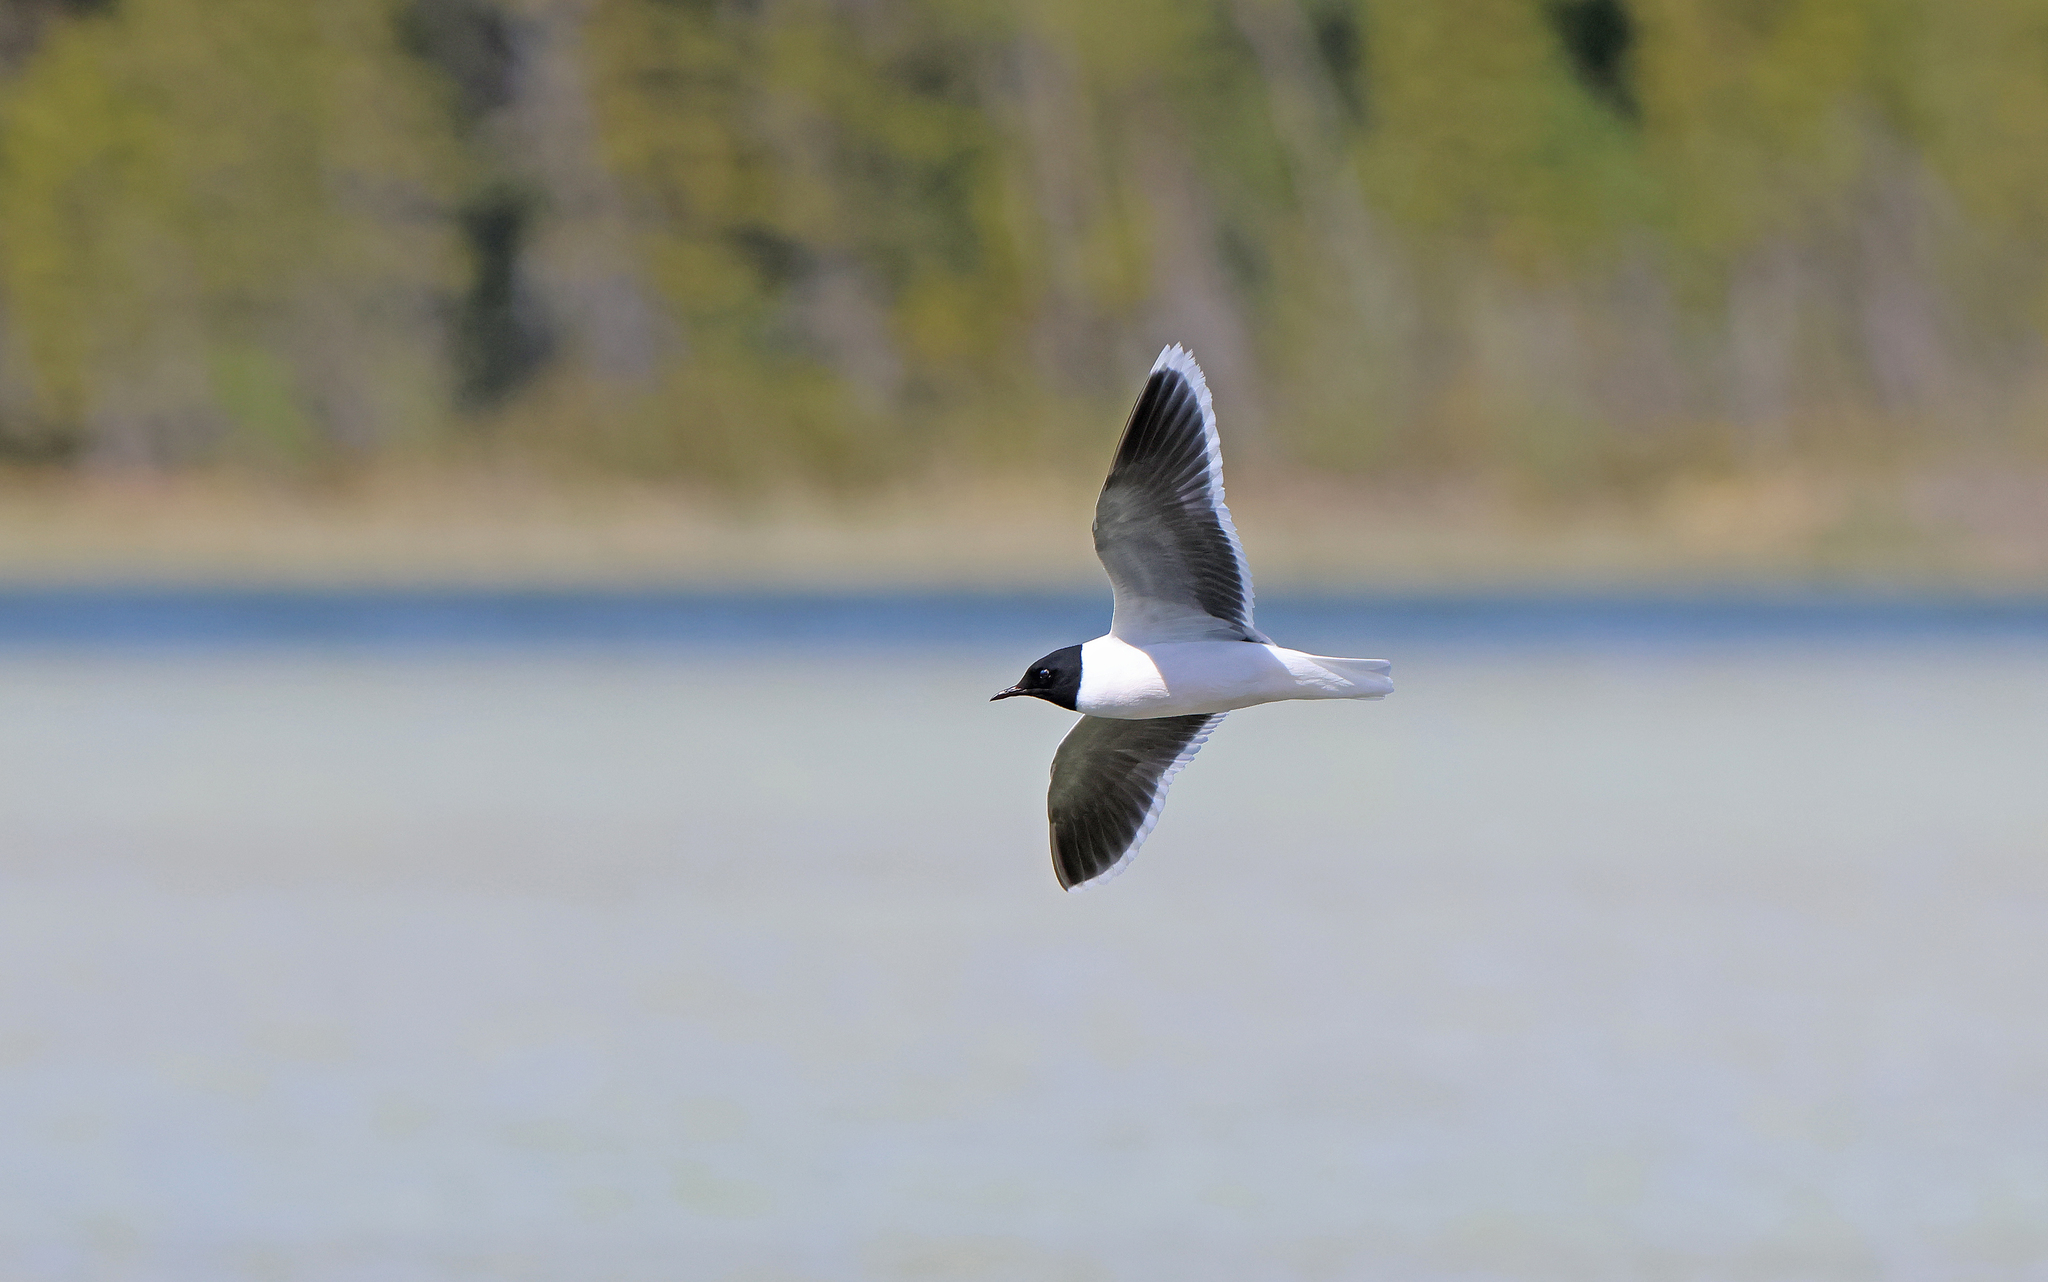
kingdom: Animalia
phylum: Chordata
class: Aves
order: Charadriiformes
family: Laridae
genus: Hydrocoloeus
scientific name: Hydrocoloeus minutus
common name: Little gull
